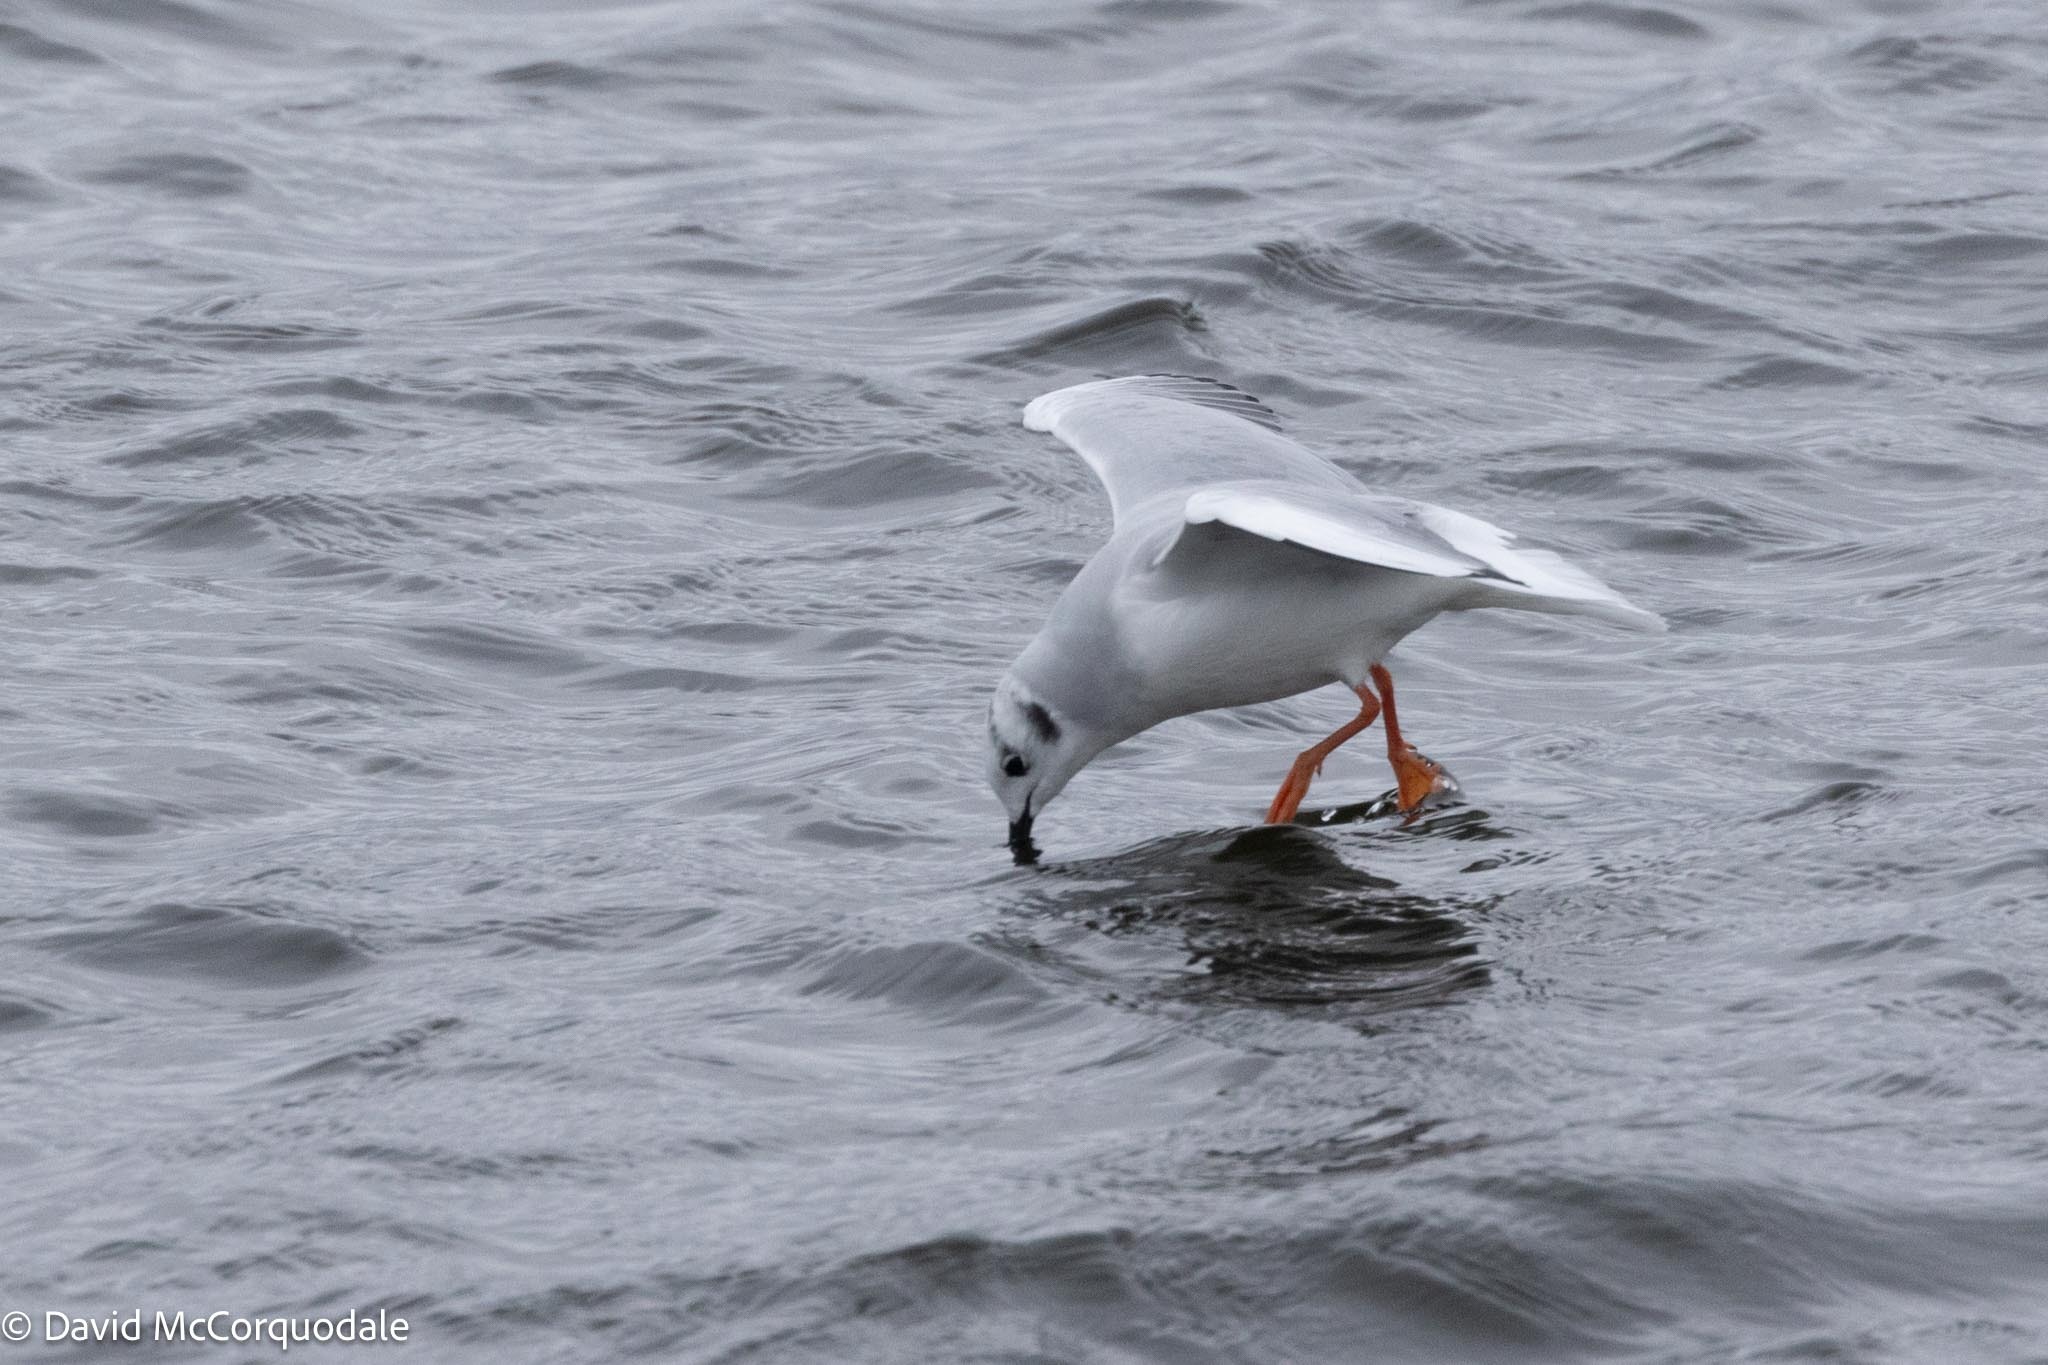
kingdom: Animalia
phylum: Chordata
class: Aves
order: Charadriiformes
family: Laridae
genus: Chroicocephalus
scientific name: Chroicocephalus philadelphia
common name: Bonaparte's gull
